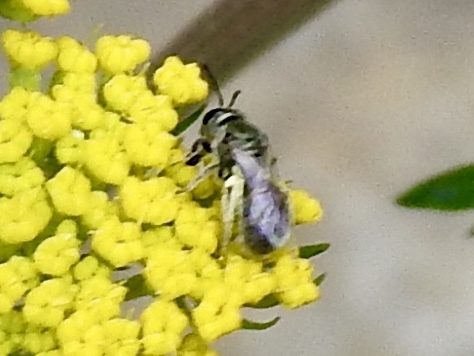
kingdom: Animalia
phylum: Arthropoda
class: Insecta
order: Hymenoptera
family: Halictidae
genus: Dialictus
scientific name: Dialictus
